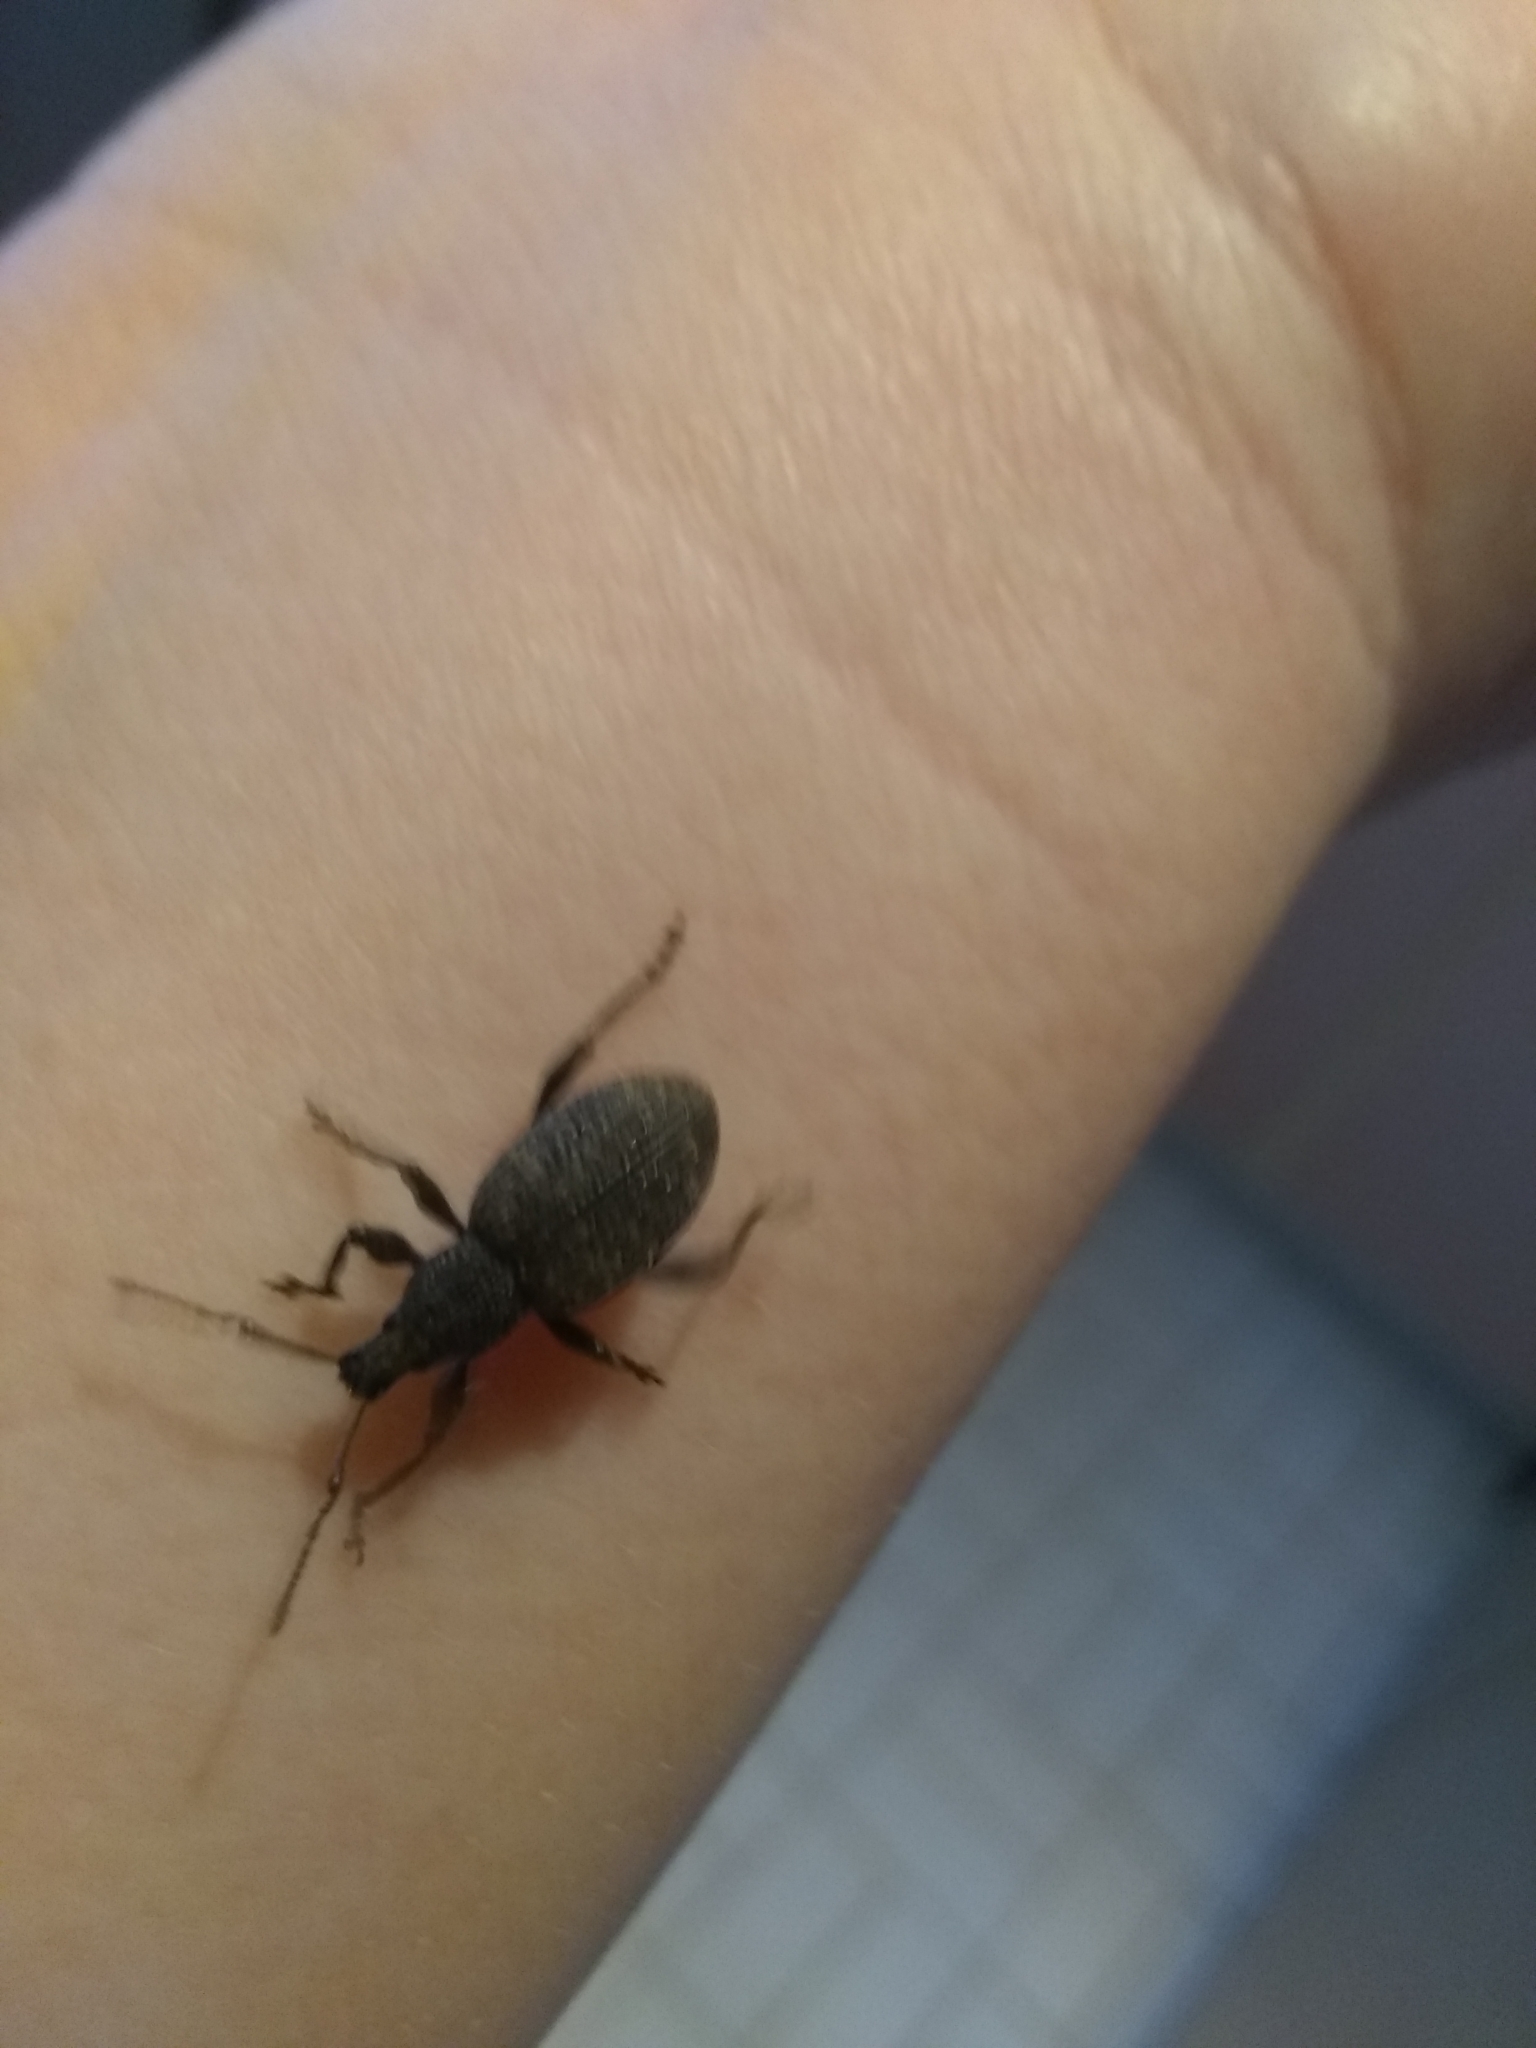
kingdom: Animalia
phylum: Arthropoda
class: Insecta
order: Coleoptera
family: Curculionidae
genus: Otiorhynchus
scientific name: Otiorhynchus sulcatus
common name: Black vine weevil
